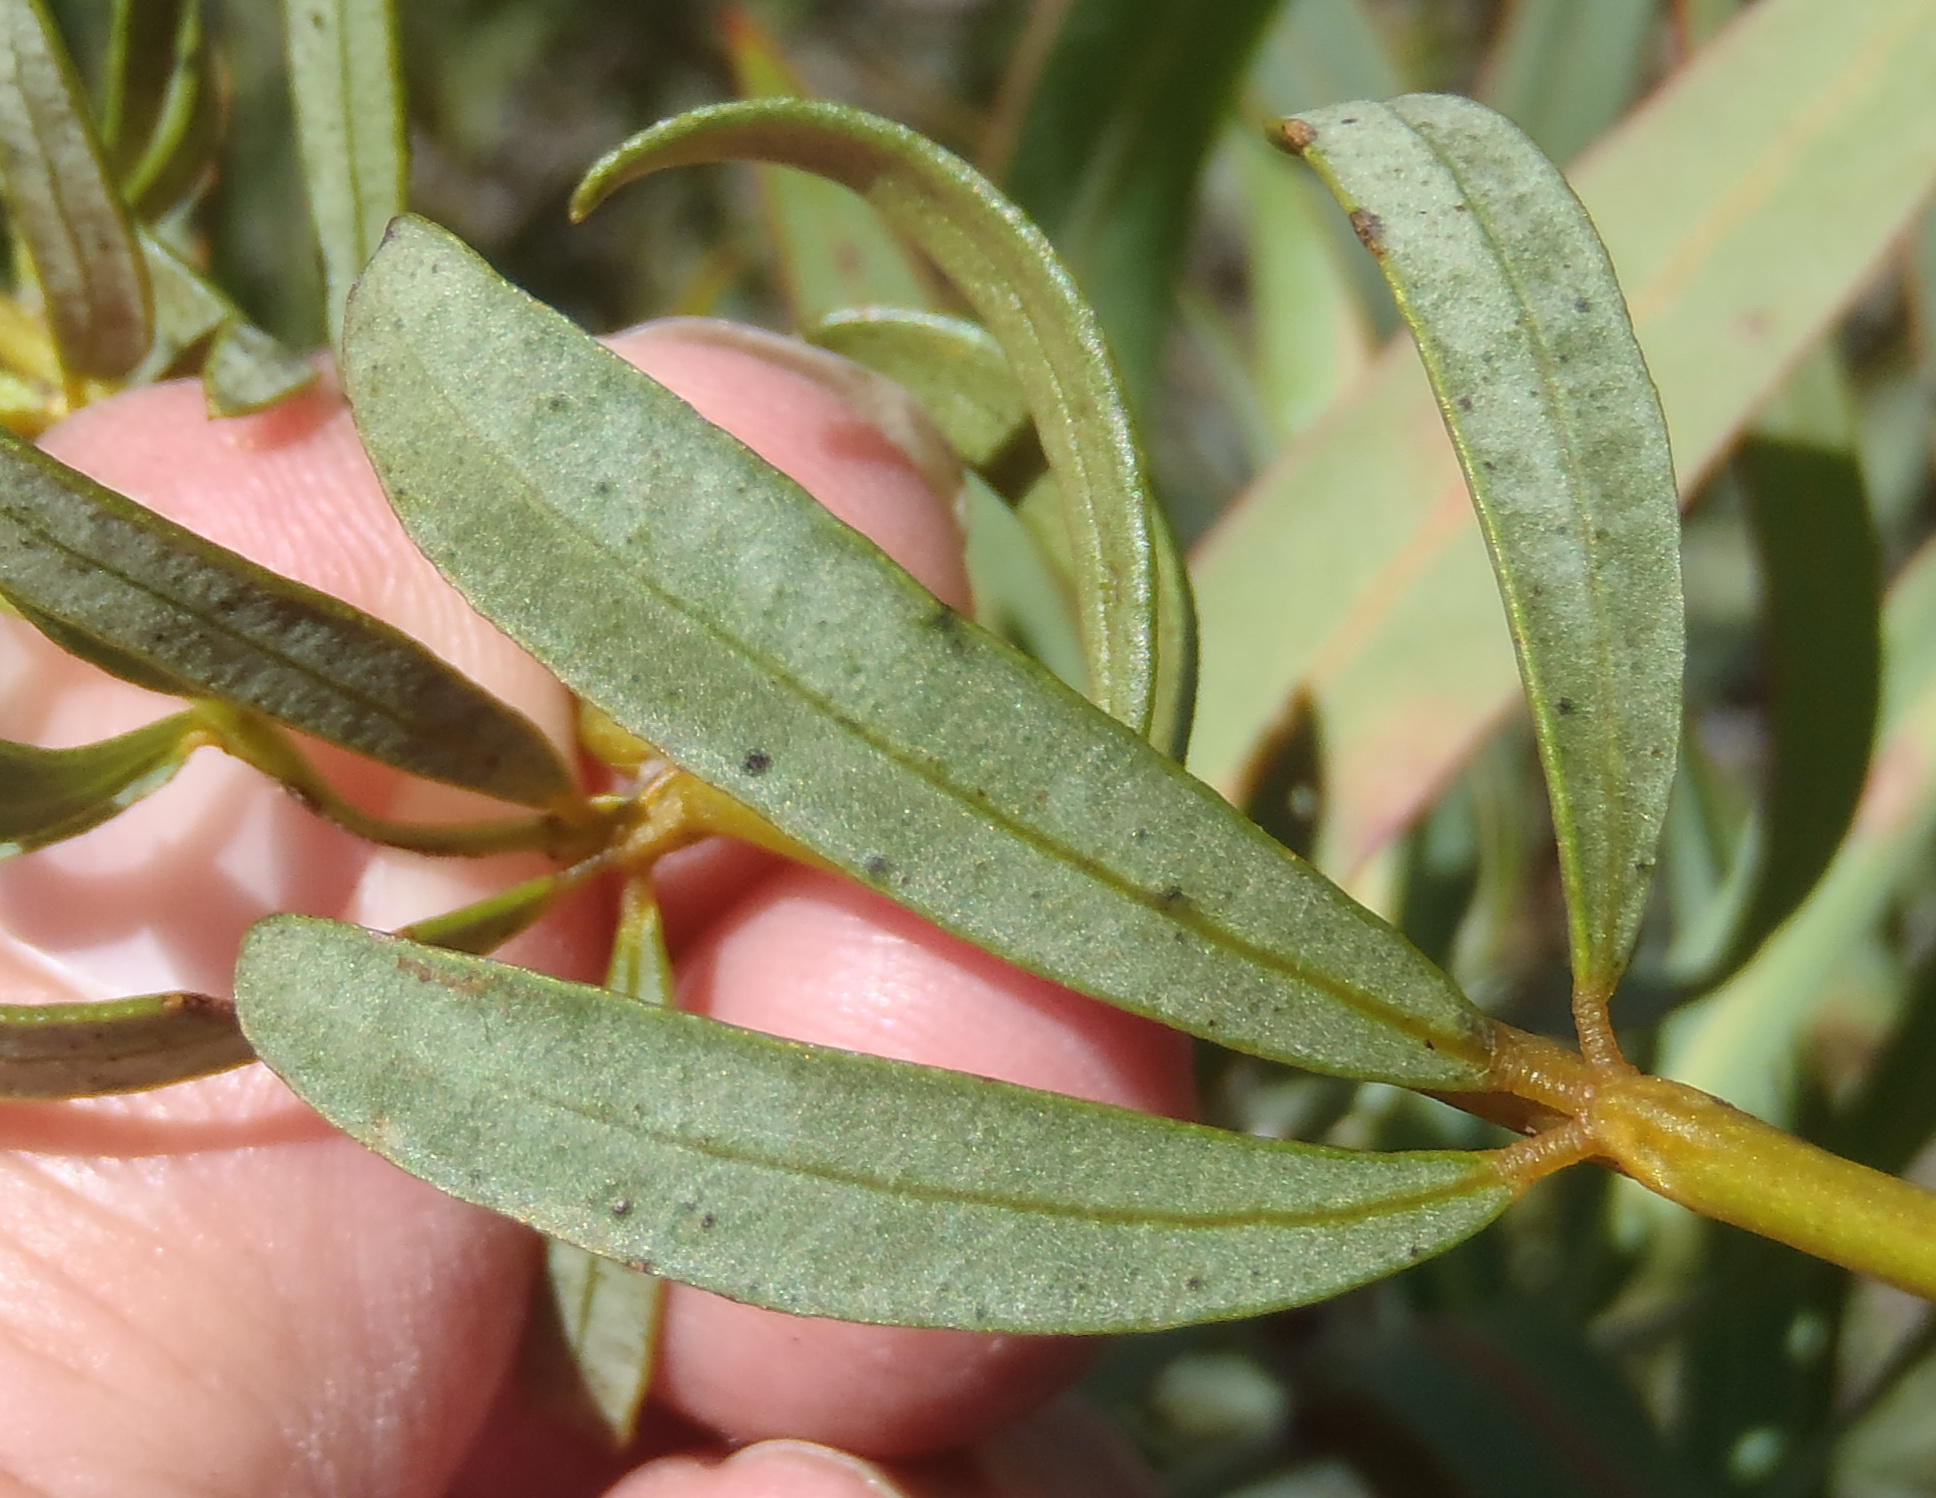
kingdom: Plantae
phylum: Tracheophyta
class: Magnoliopsida
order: Fabales
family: Fabaceae
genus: Cyclopia
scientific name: Cyclopia intermedia
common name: Mountain tea
